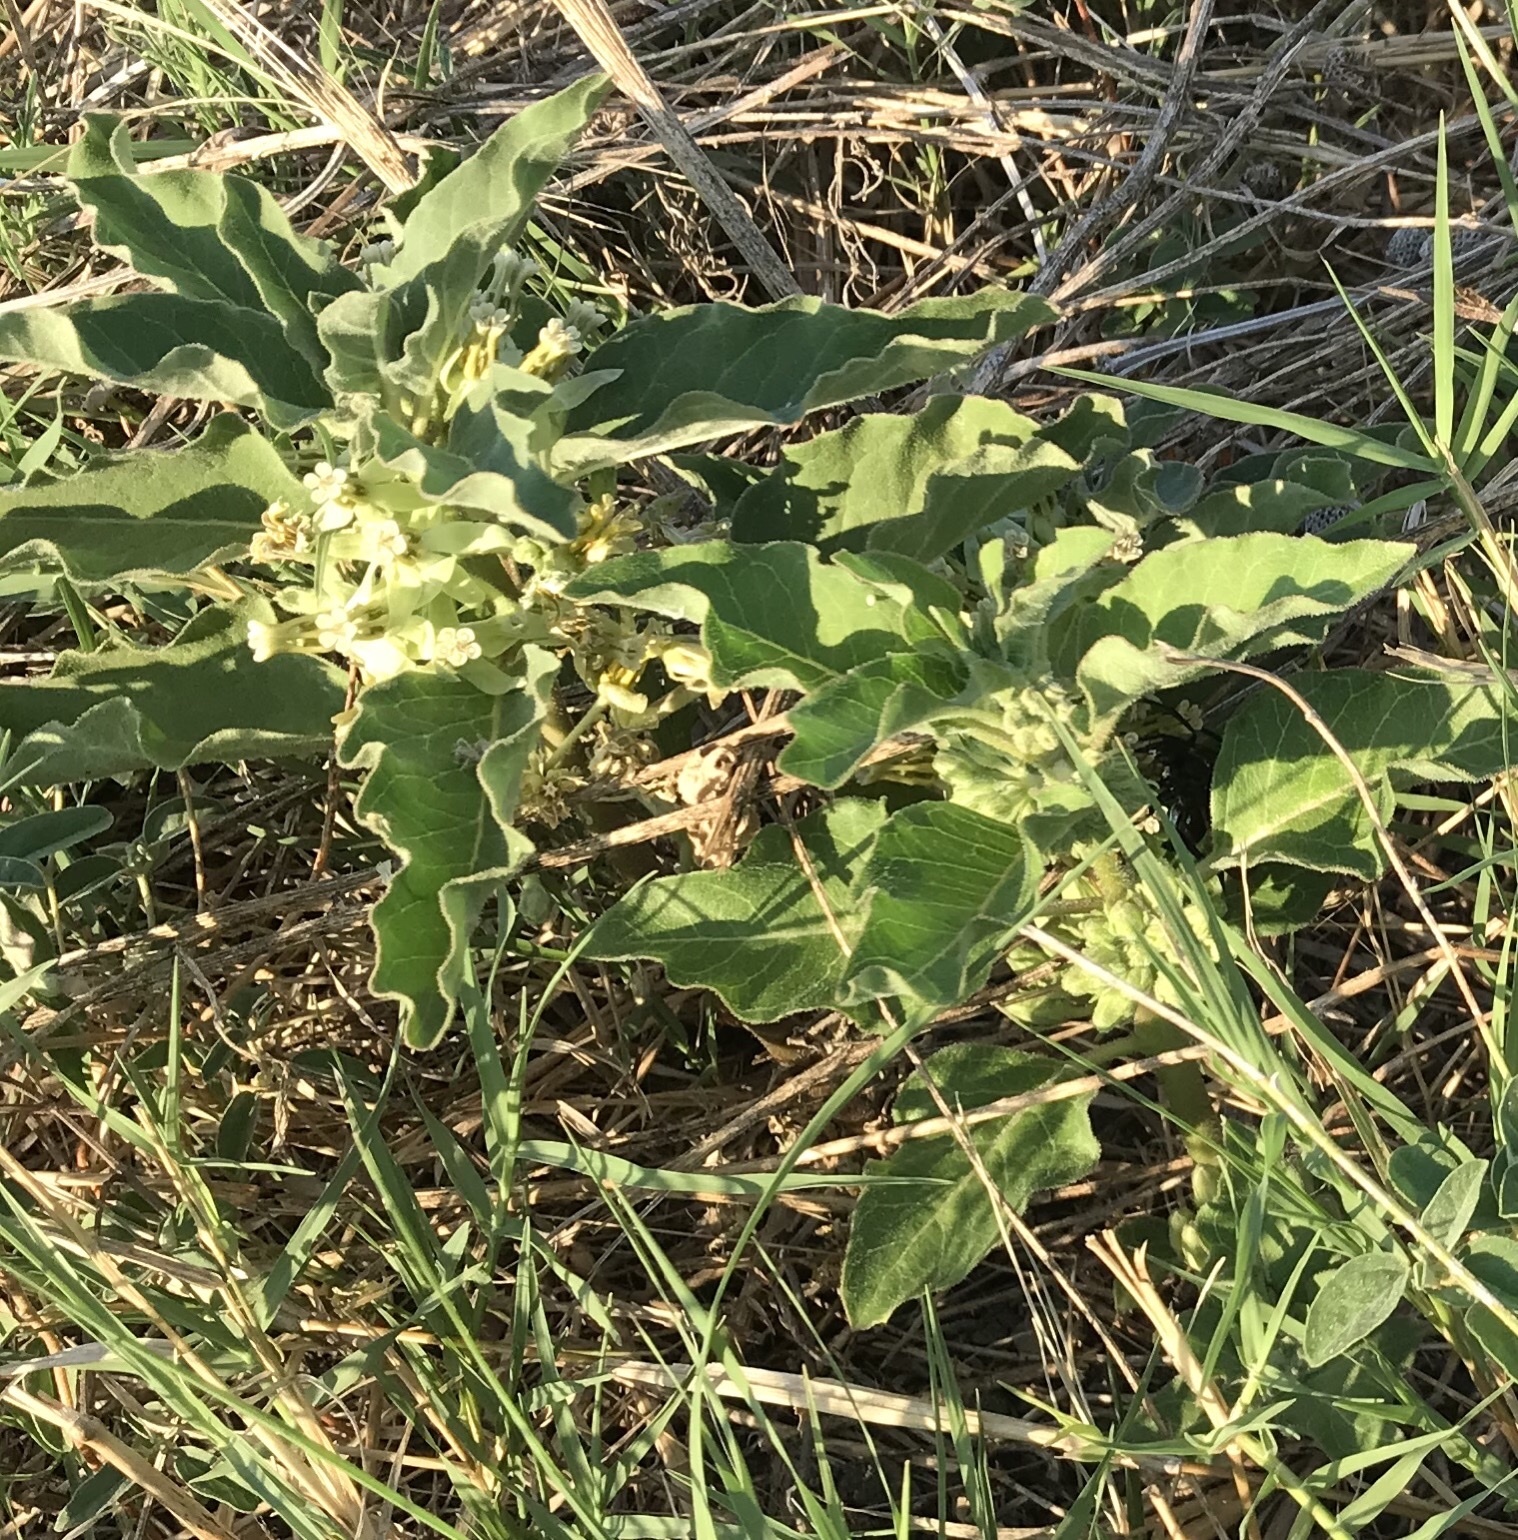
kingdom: Plantae
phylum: Tracheophyta
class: Magnoliopsida
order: Gentianales
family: Apocynaceae
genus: Asclepias
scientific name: Asclepias oenotheroides
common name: Zizotes milkweed
